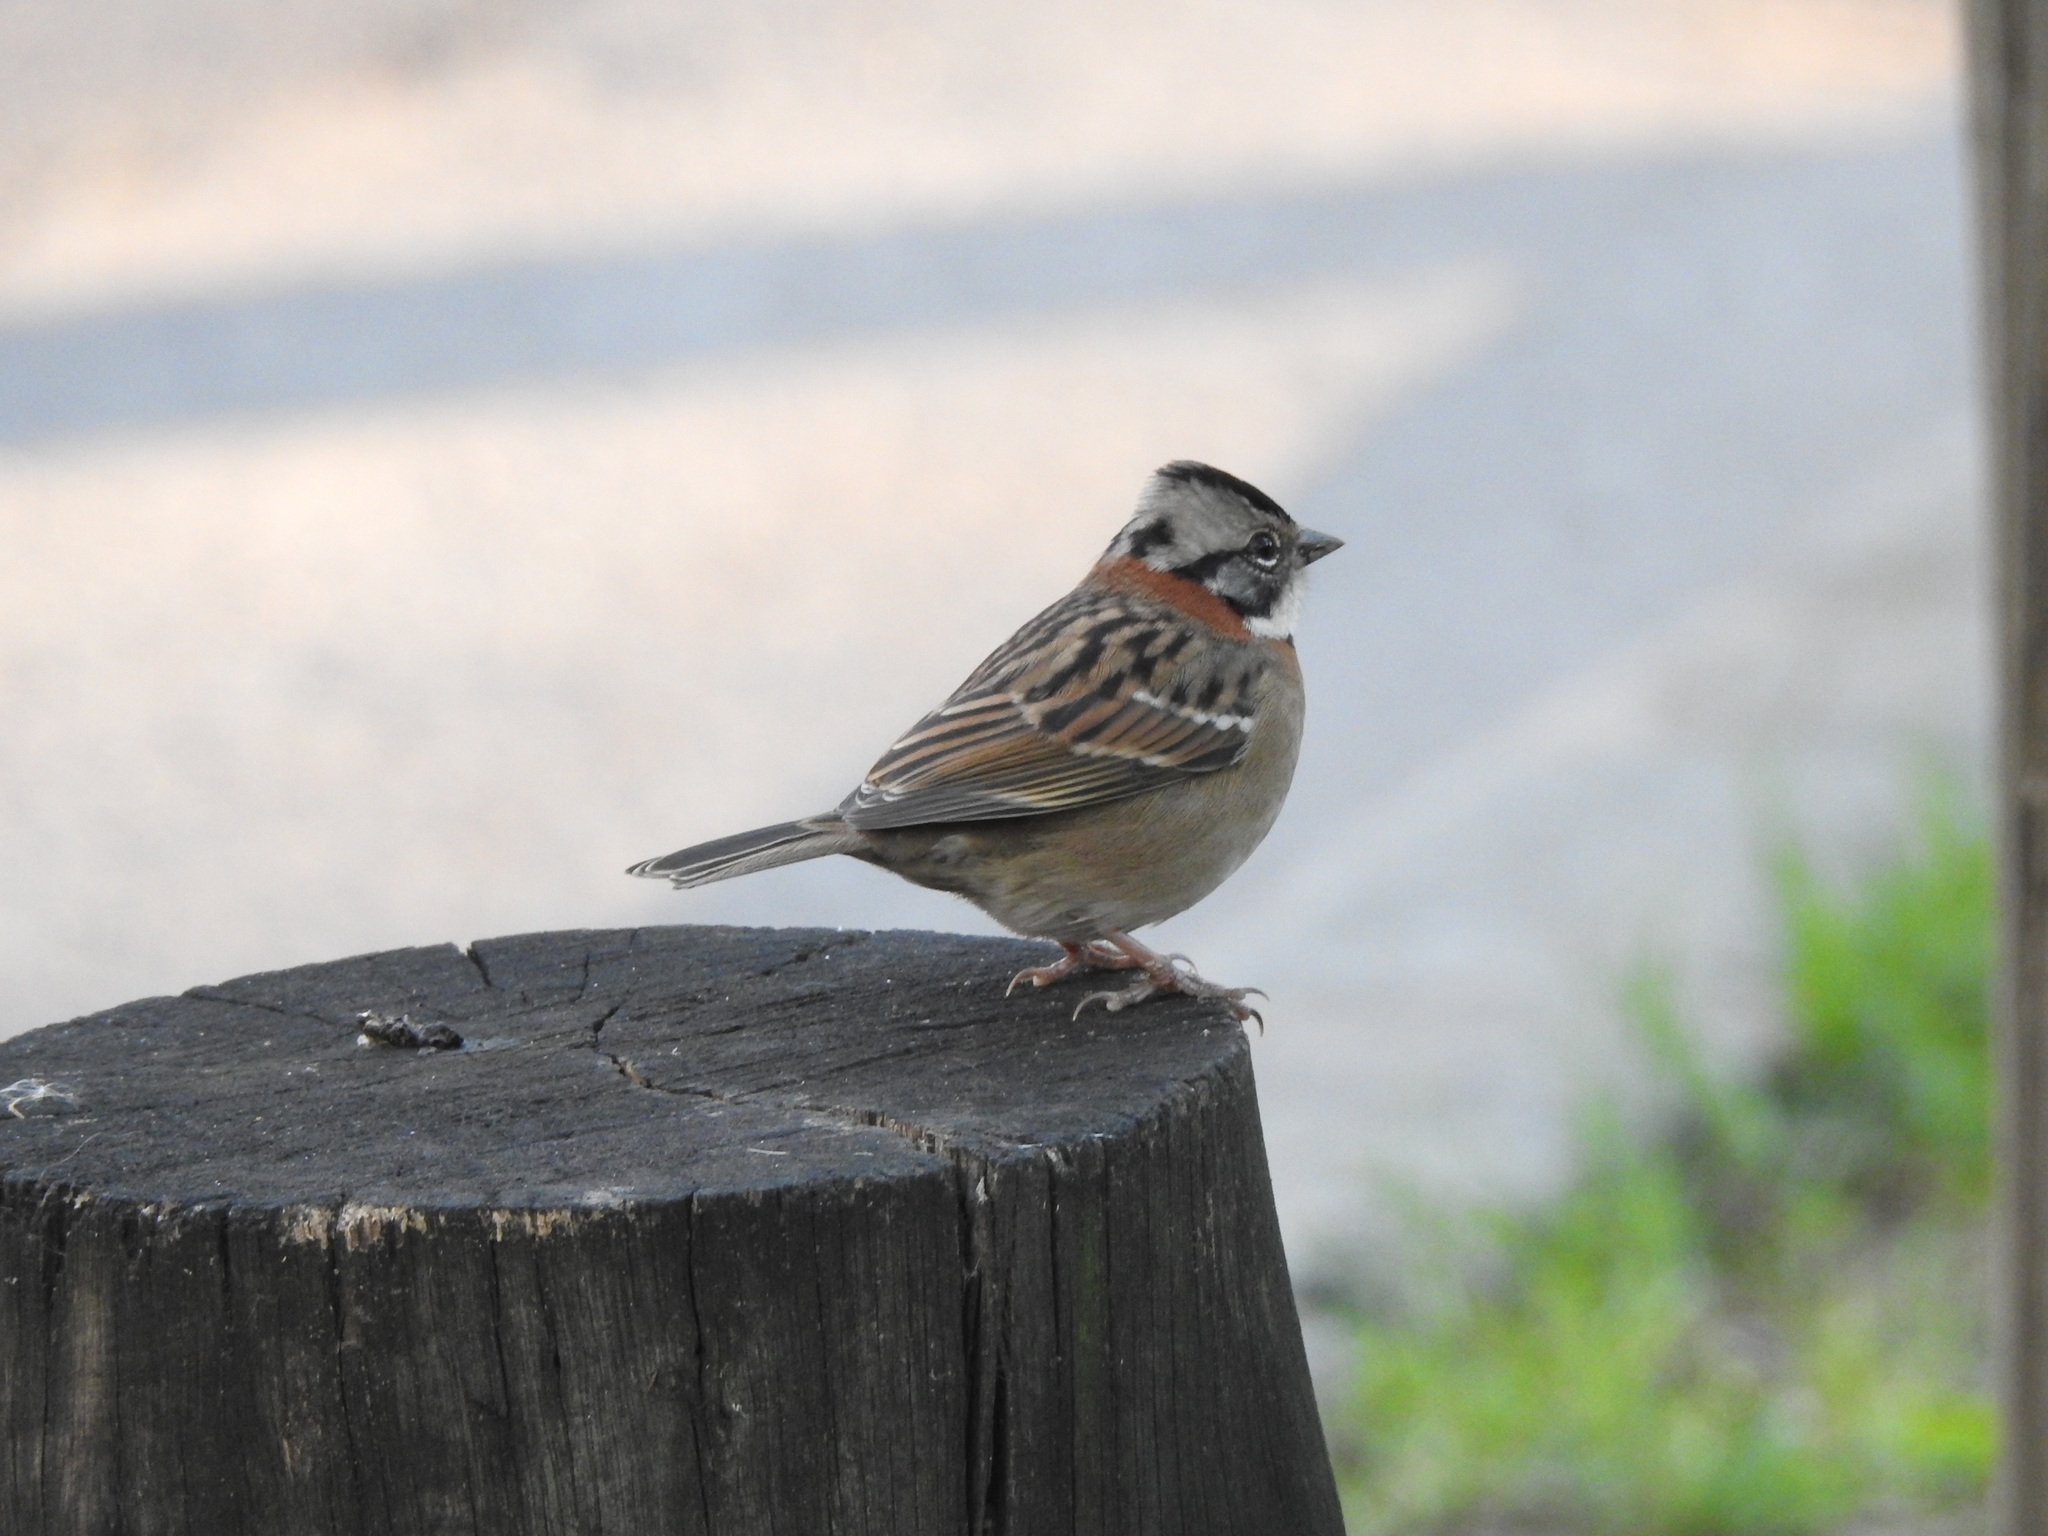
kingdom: Animalia
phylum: Chordata
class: Aves
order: Passeriformes
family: Passerellidae
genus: Zonotrichia
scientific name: Zonotrichia capensis
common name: Rufous-collared sparrow
